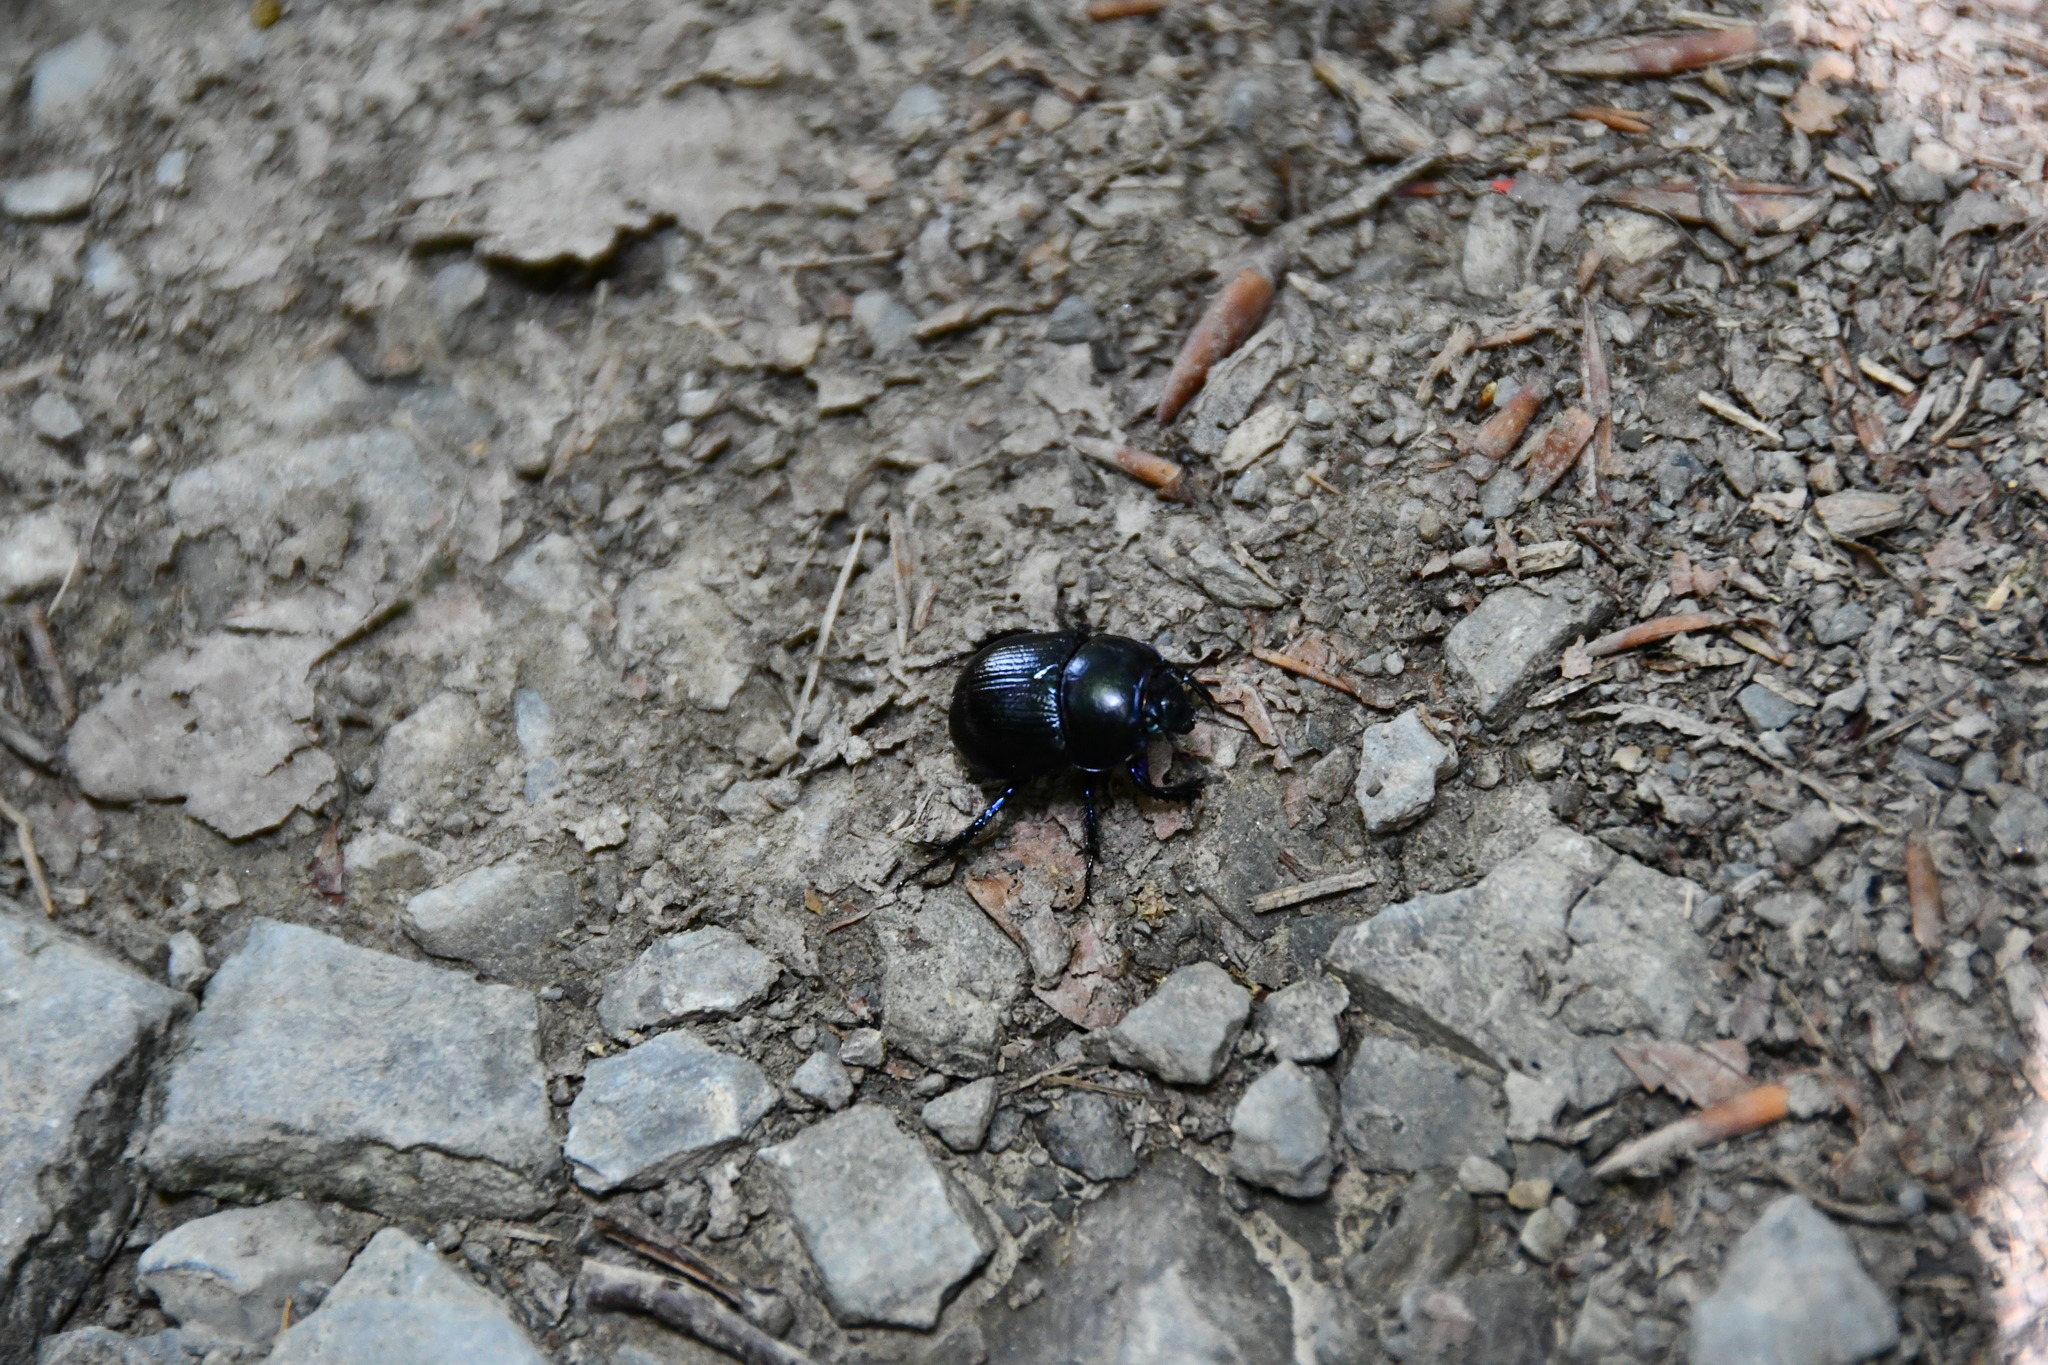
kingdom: Animalia
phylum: Arthropoda
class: Insecta
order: Coleoptera
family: Geotrupidae
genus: Anoplotrupes
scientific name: Anoplotrupes stercorosus
